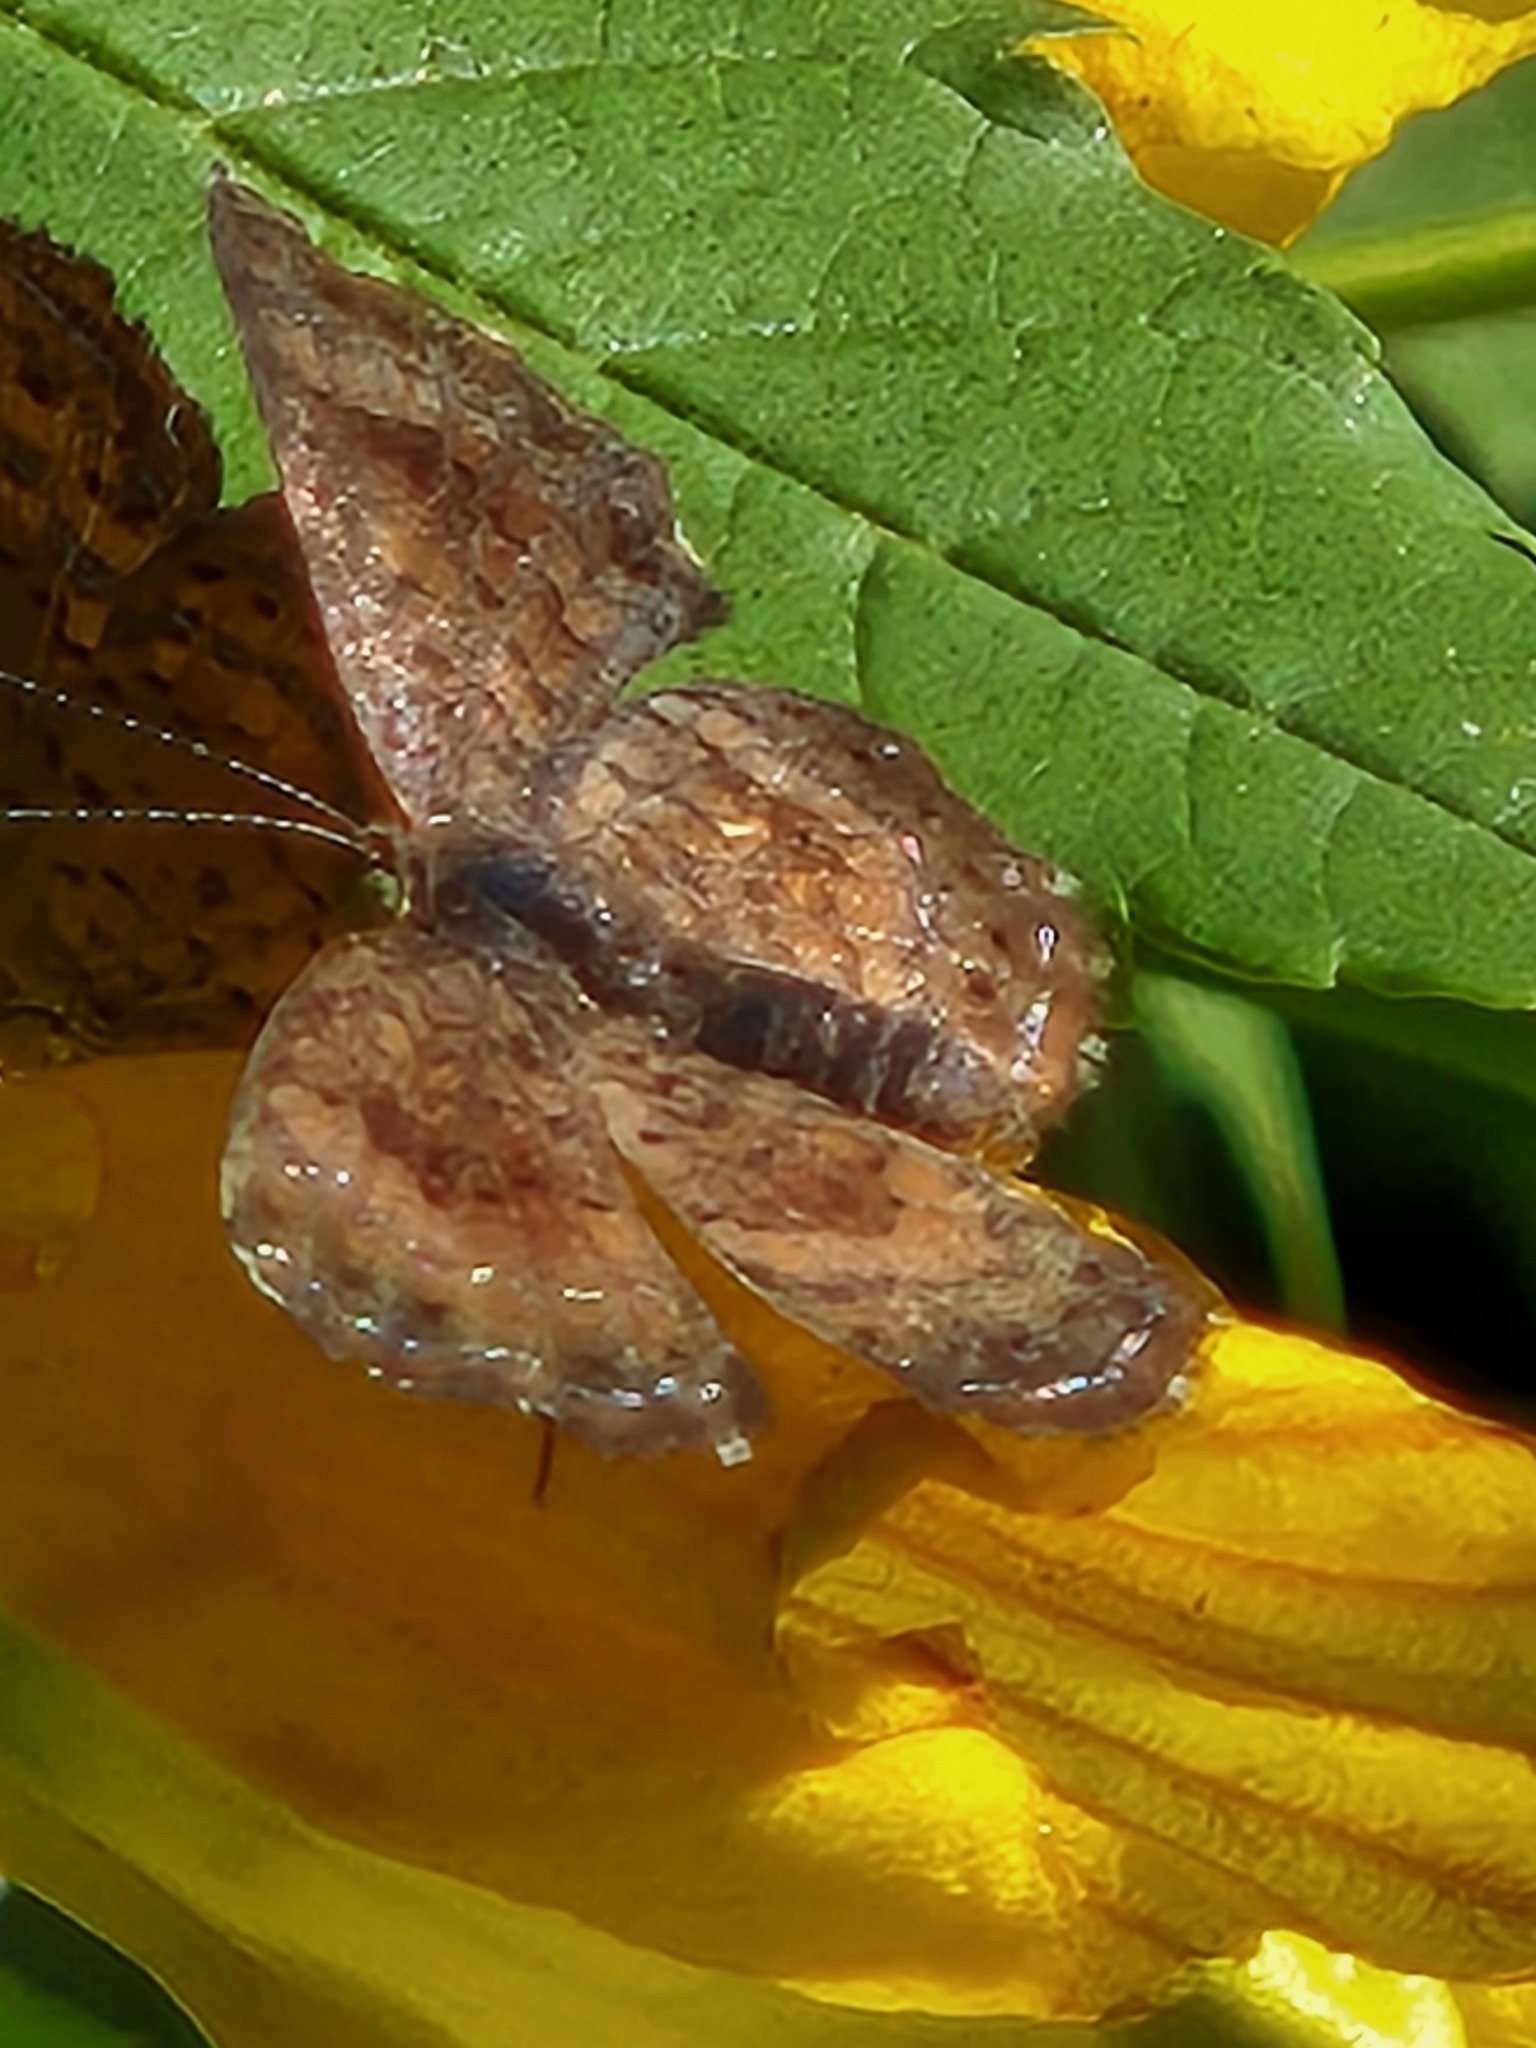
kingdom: Animalia
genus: Calephelis
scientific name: Calephelis nemesis
